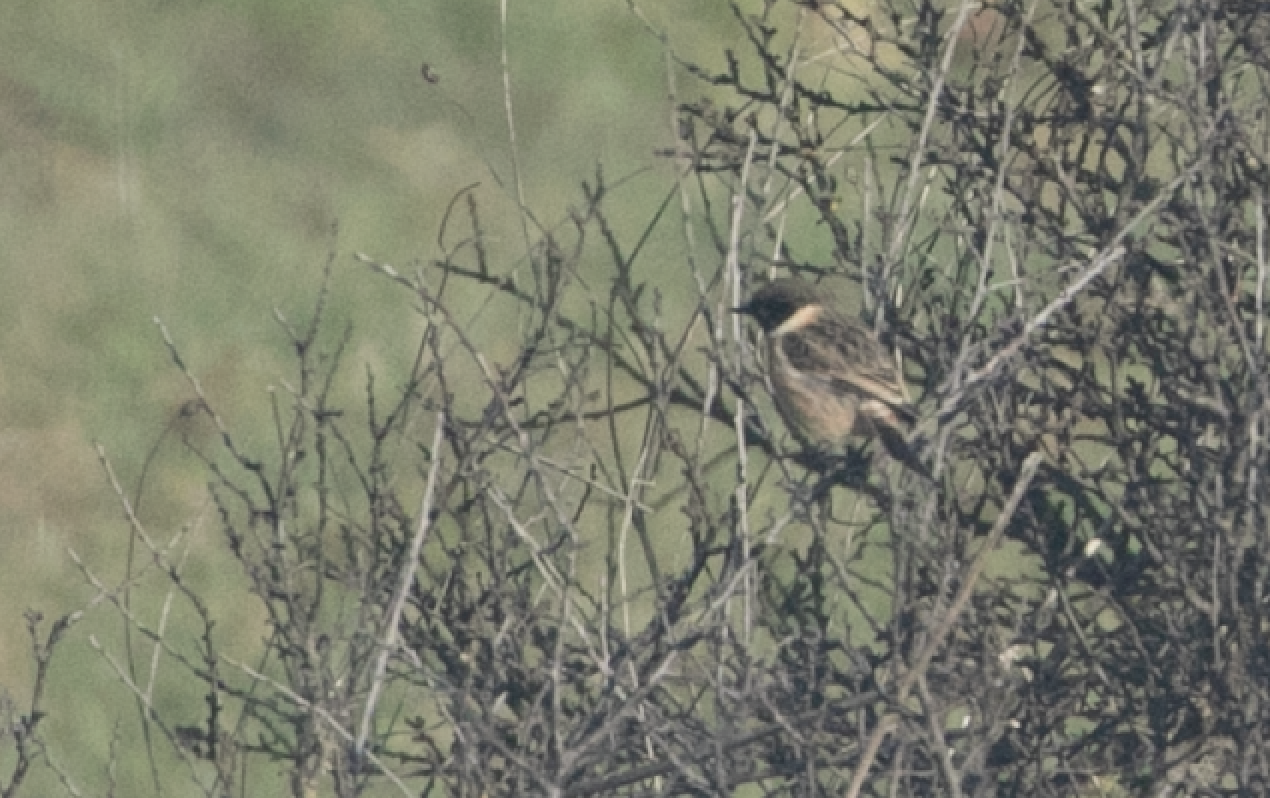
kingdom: Animalia
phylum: Chordata
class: Aves
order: Passeriformes
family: Muscicapidae
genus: Saxicola
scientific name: Saxicola rubicola
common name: European stonechat
